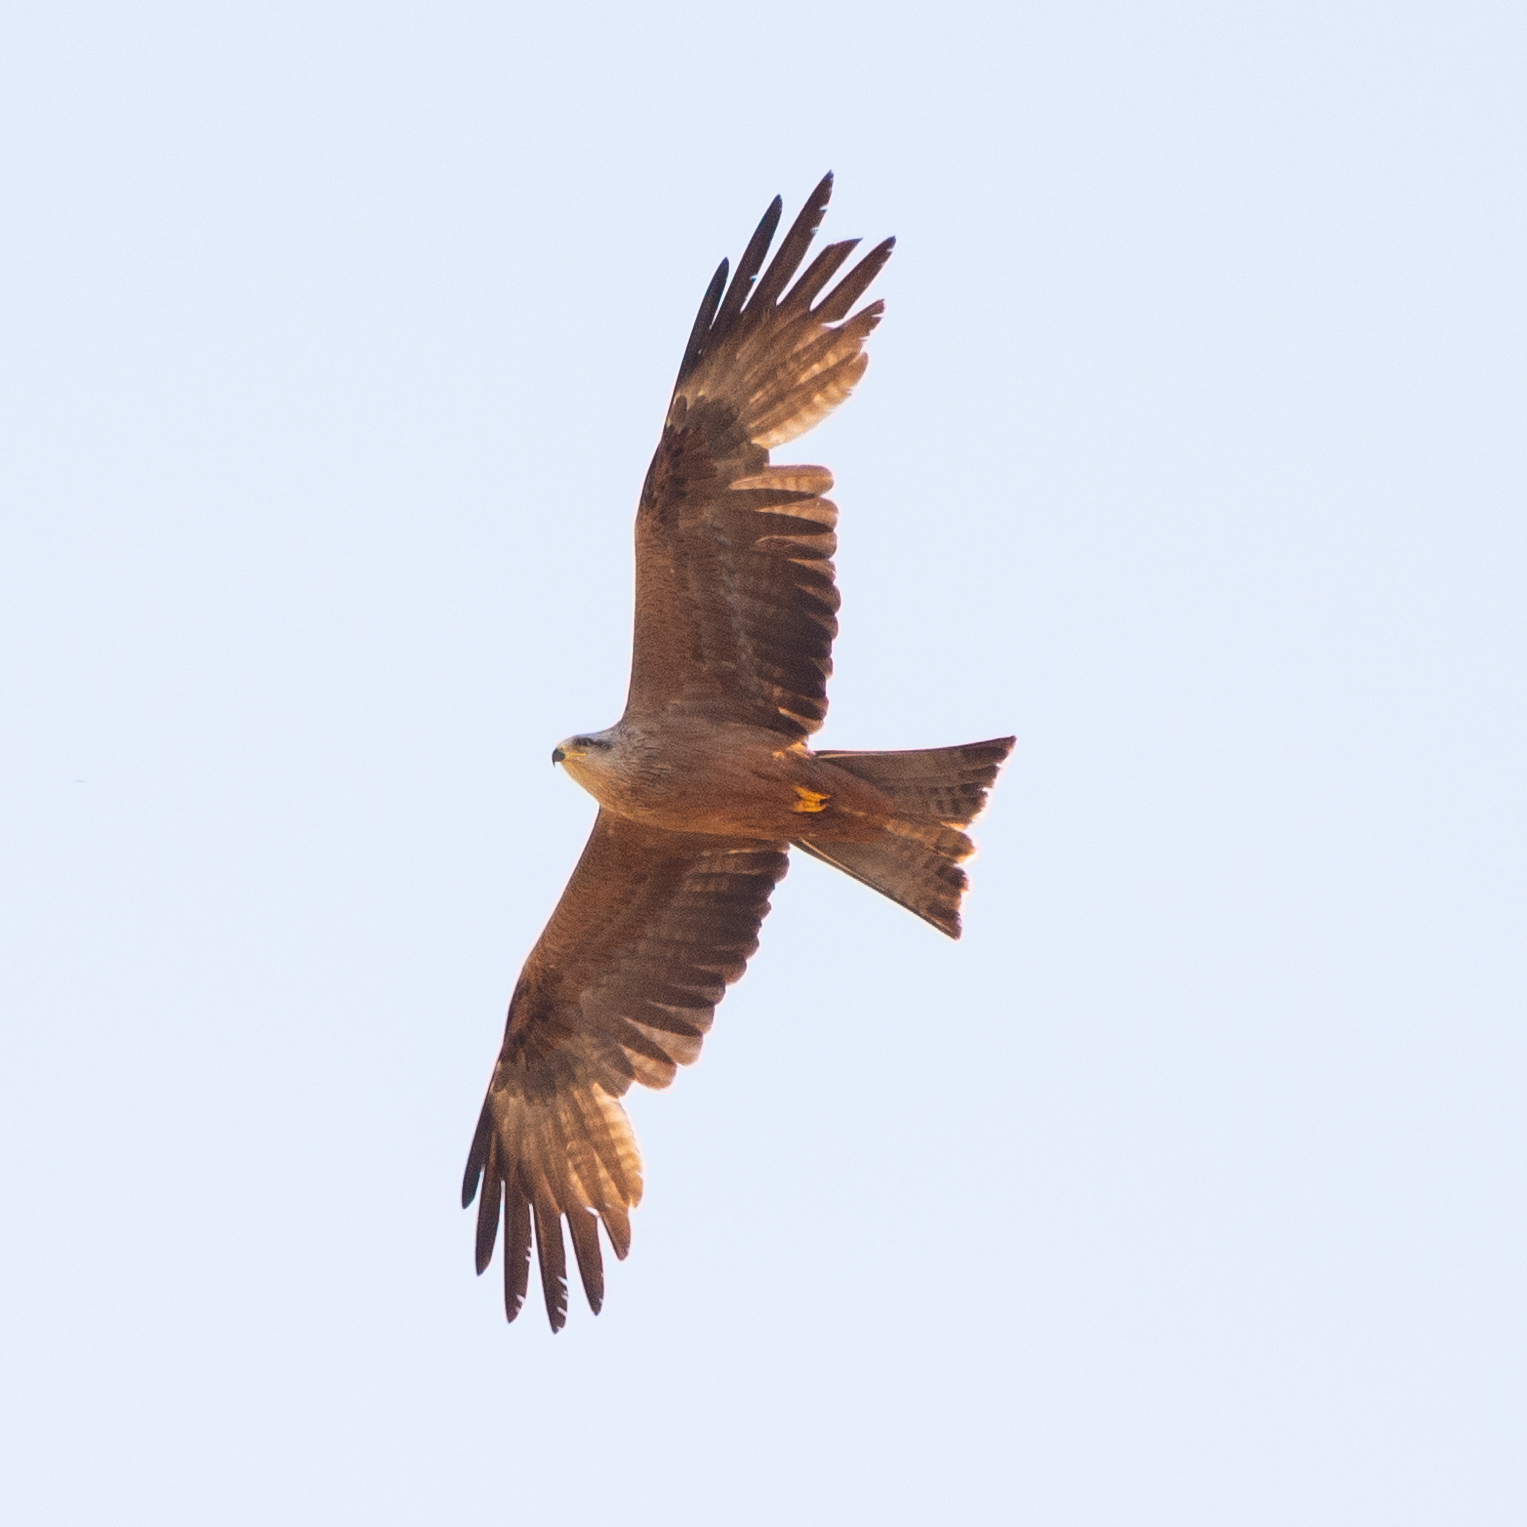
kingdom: Animalia
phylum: Chordata
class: Aves
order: Accipitriformes
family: Accipitridae
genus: Milvus
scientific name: Milvus migrans
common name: Black kite
